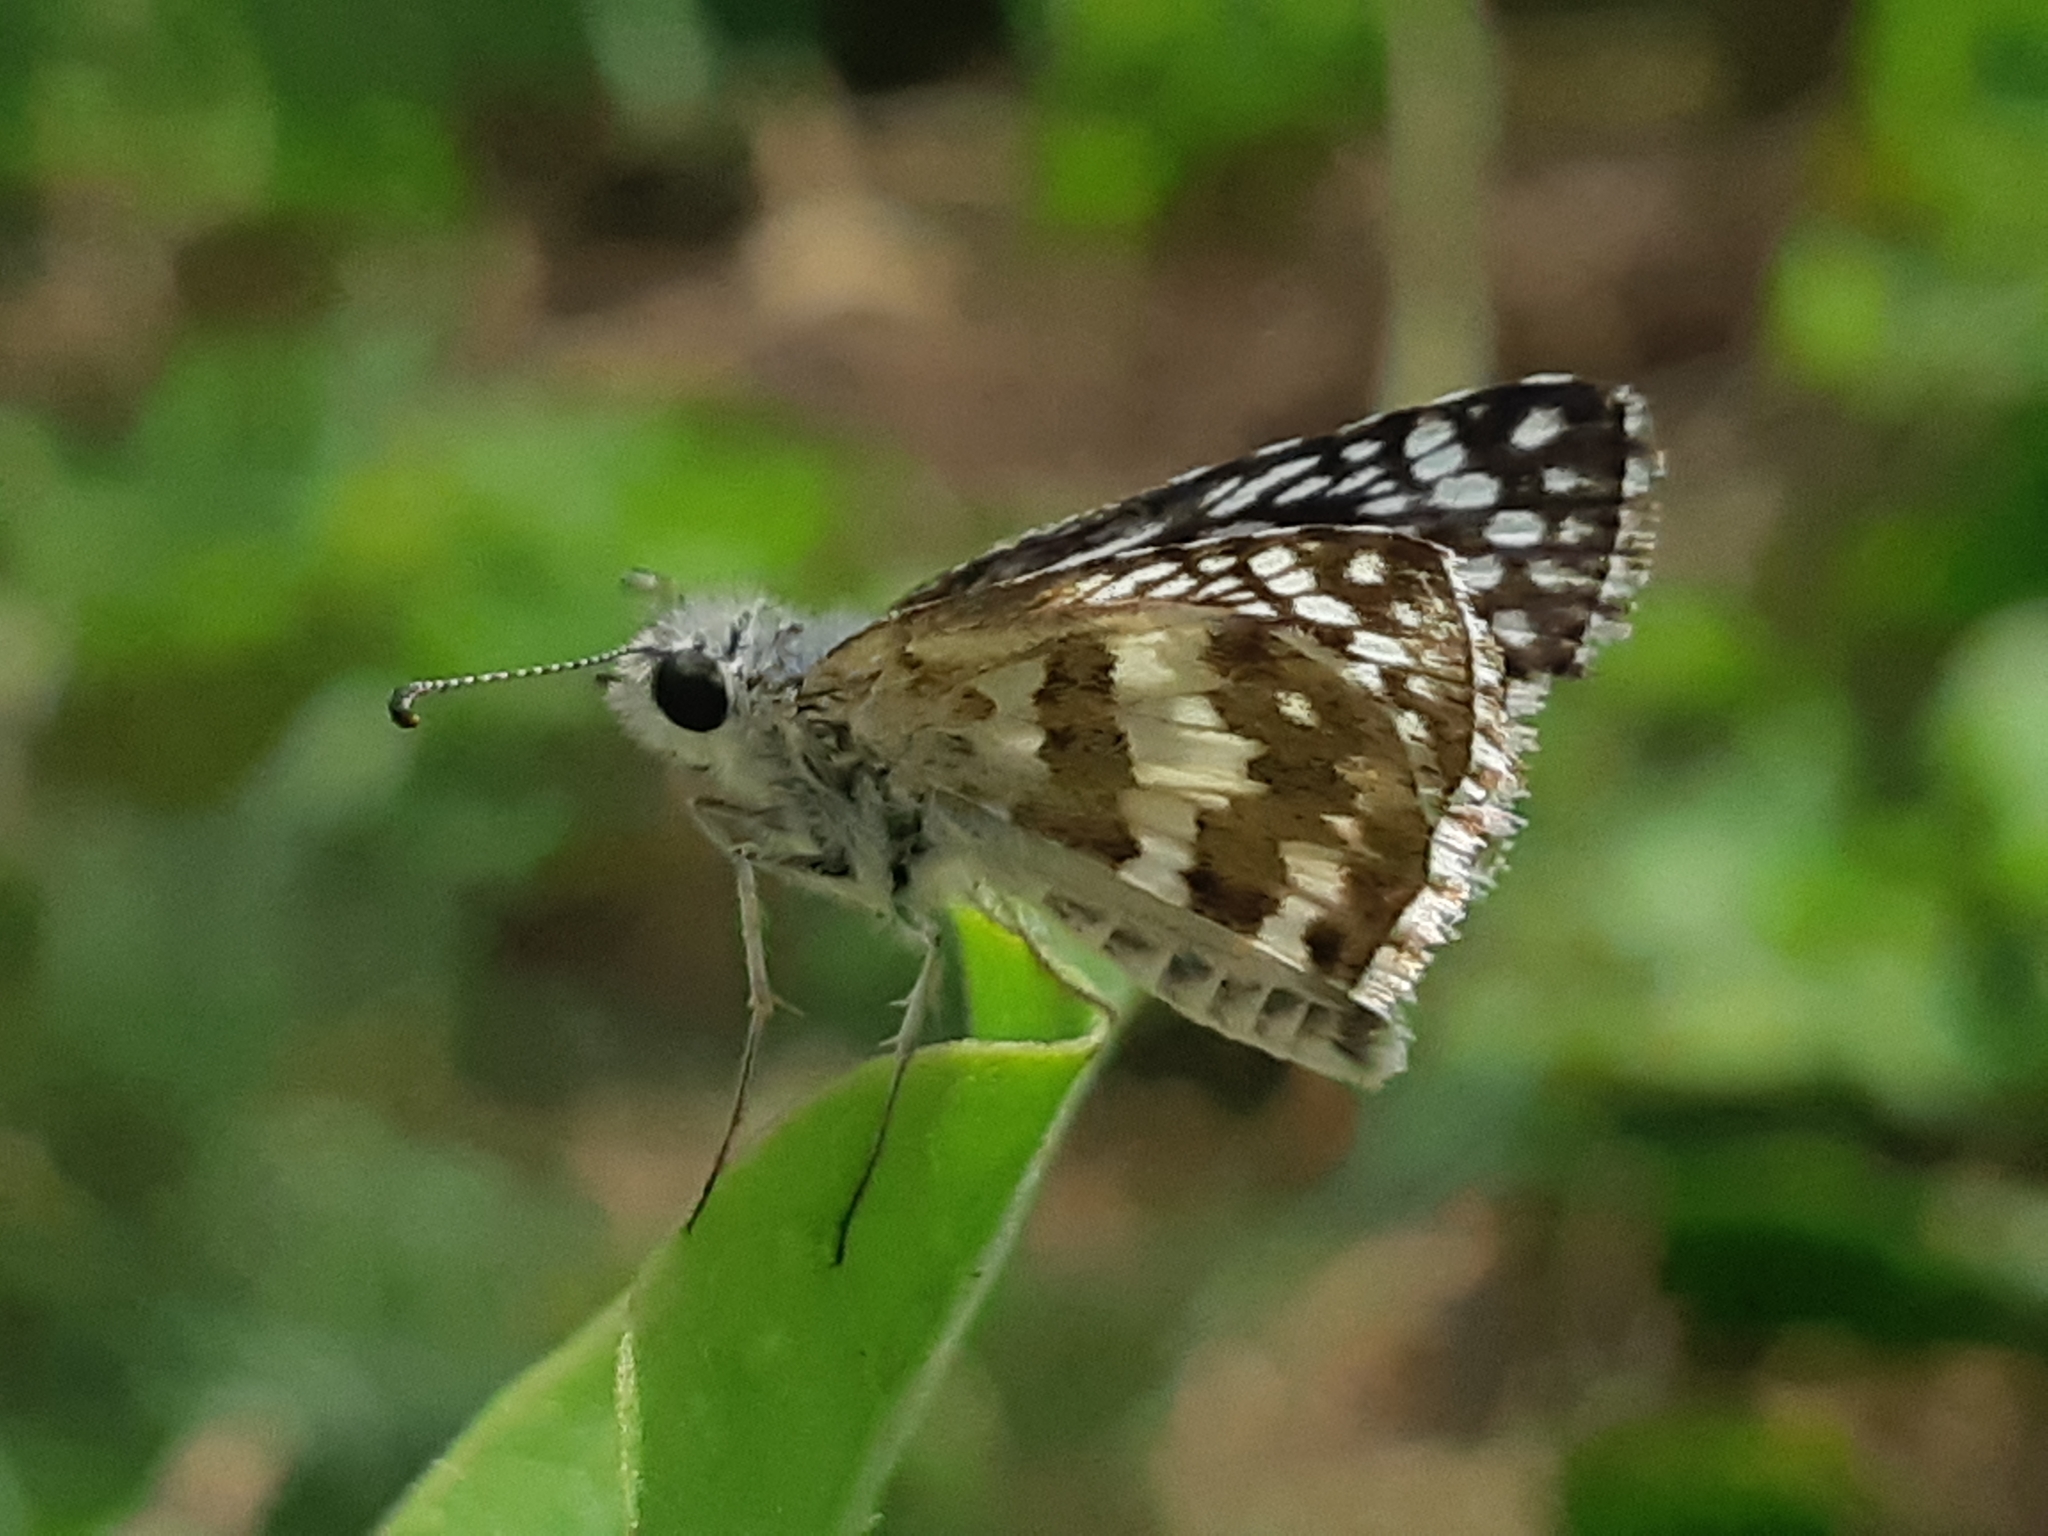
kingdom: Animalia
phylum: Arthropoda
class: Insecta
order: Lepidoptera
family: Hesperiidae
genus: Burnsius
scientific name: Burnsius chloe
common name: Chloe checkered-skipper
